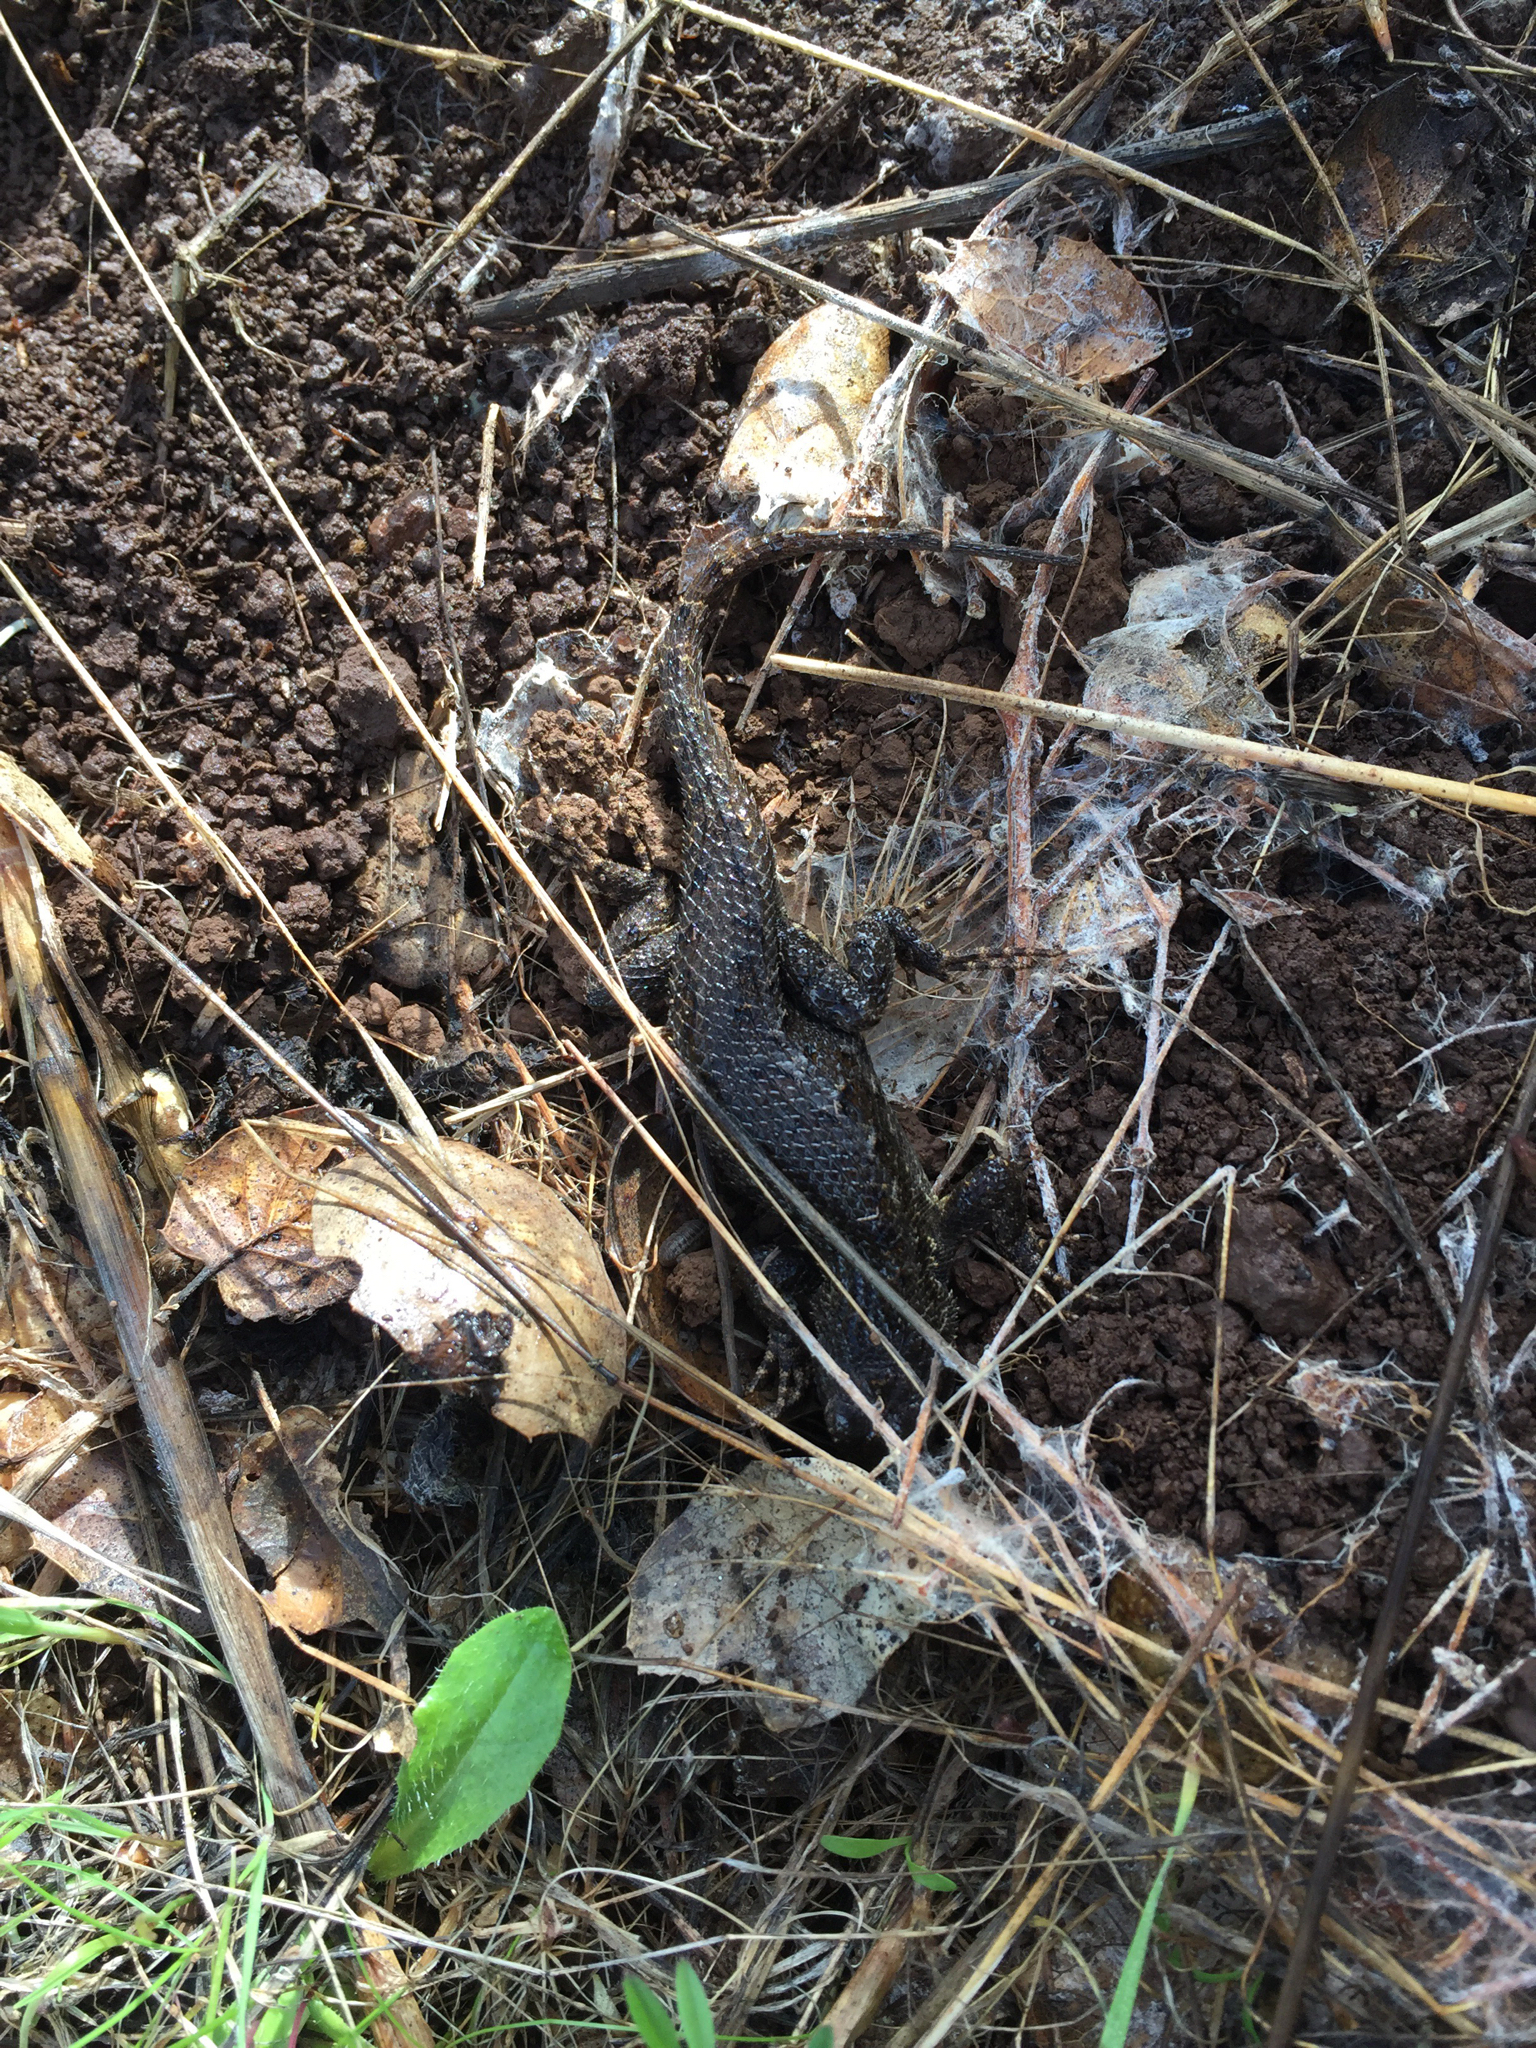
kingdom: Animalia
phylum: Chordata
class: Squamata
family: Phrynosomatidae
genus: Sceloporus
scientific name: Sceloporus occidentalis
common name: Western fence lizard
